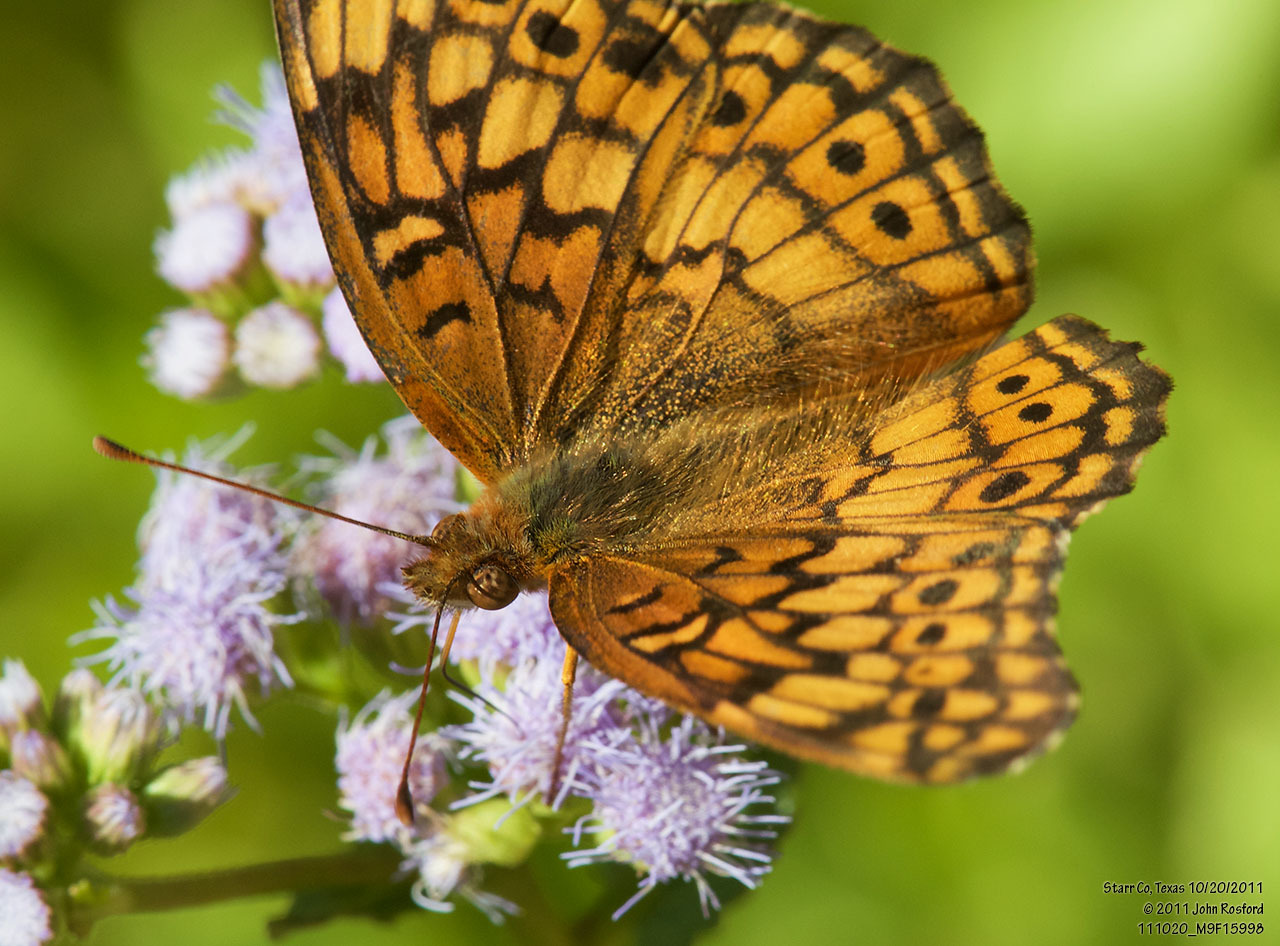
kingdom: Animalia
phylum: Arthropoda
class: Insecta
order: Lepidoptera
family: Nymphalidae
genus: Euptoieta
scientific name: Euptoieta claudia
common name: Variegated fritillary
